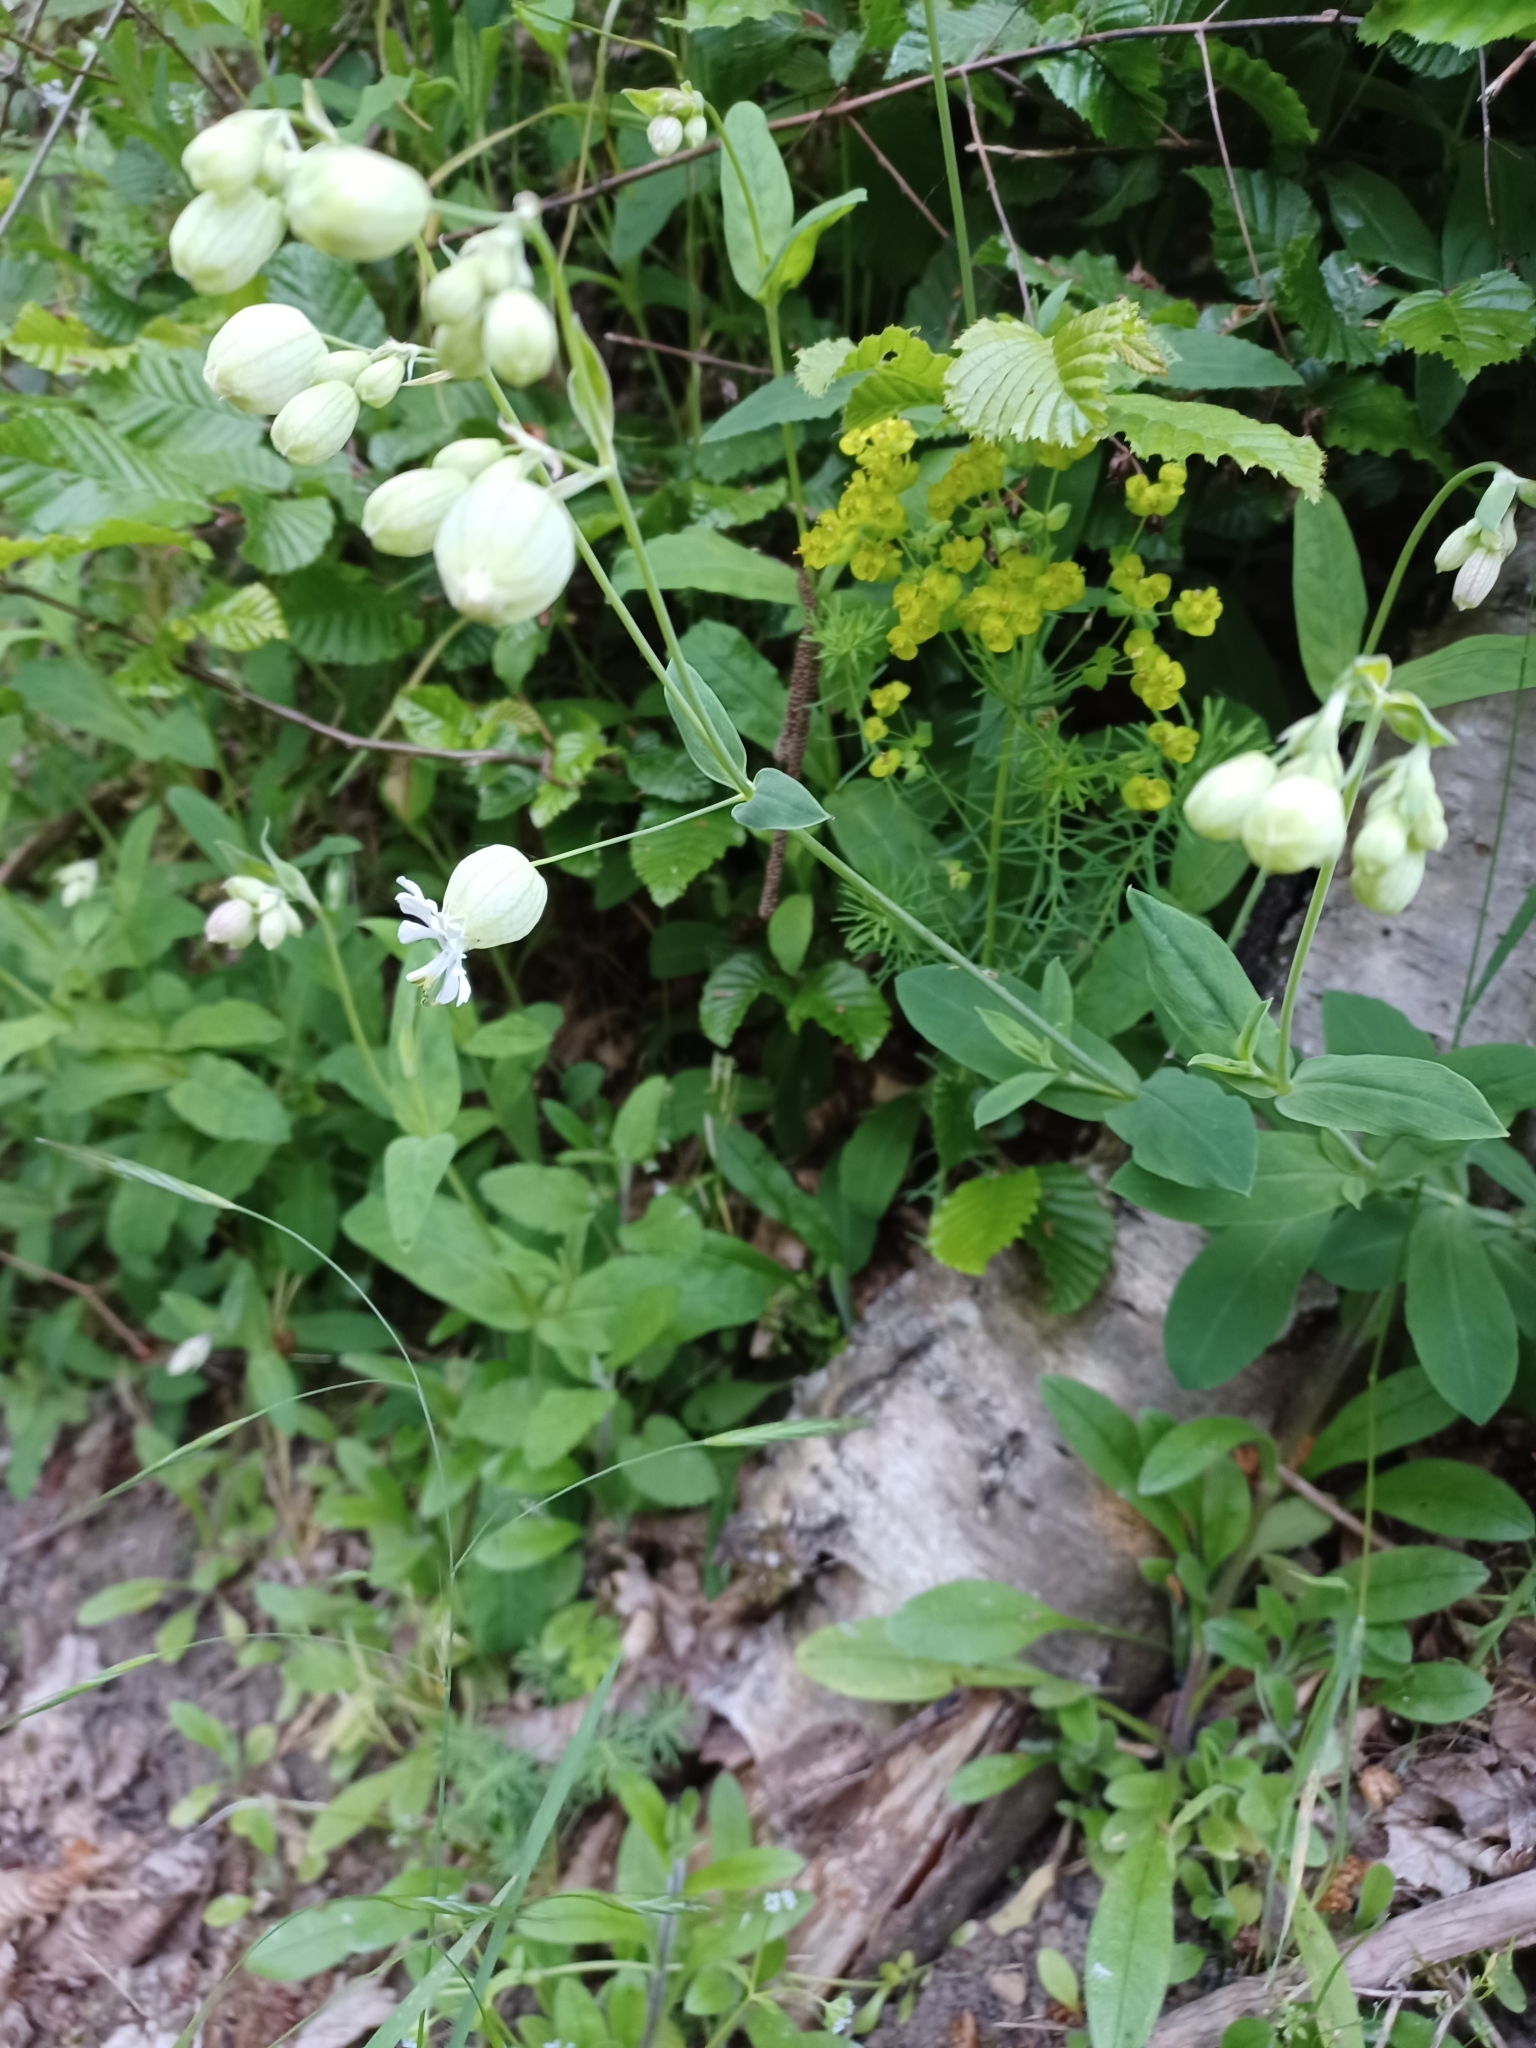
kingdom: Plantae
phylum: Tracheophyta
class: Magnoliopsida
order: Caryophyllales
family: Caryophyllaceae
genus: Silene
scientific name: Silene vulgaris
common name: Bladder campion
